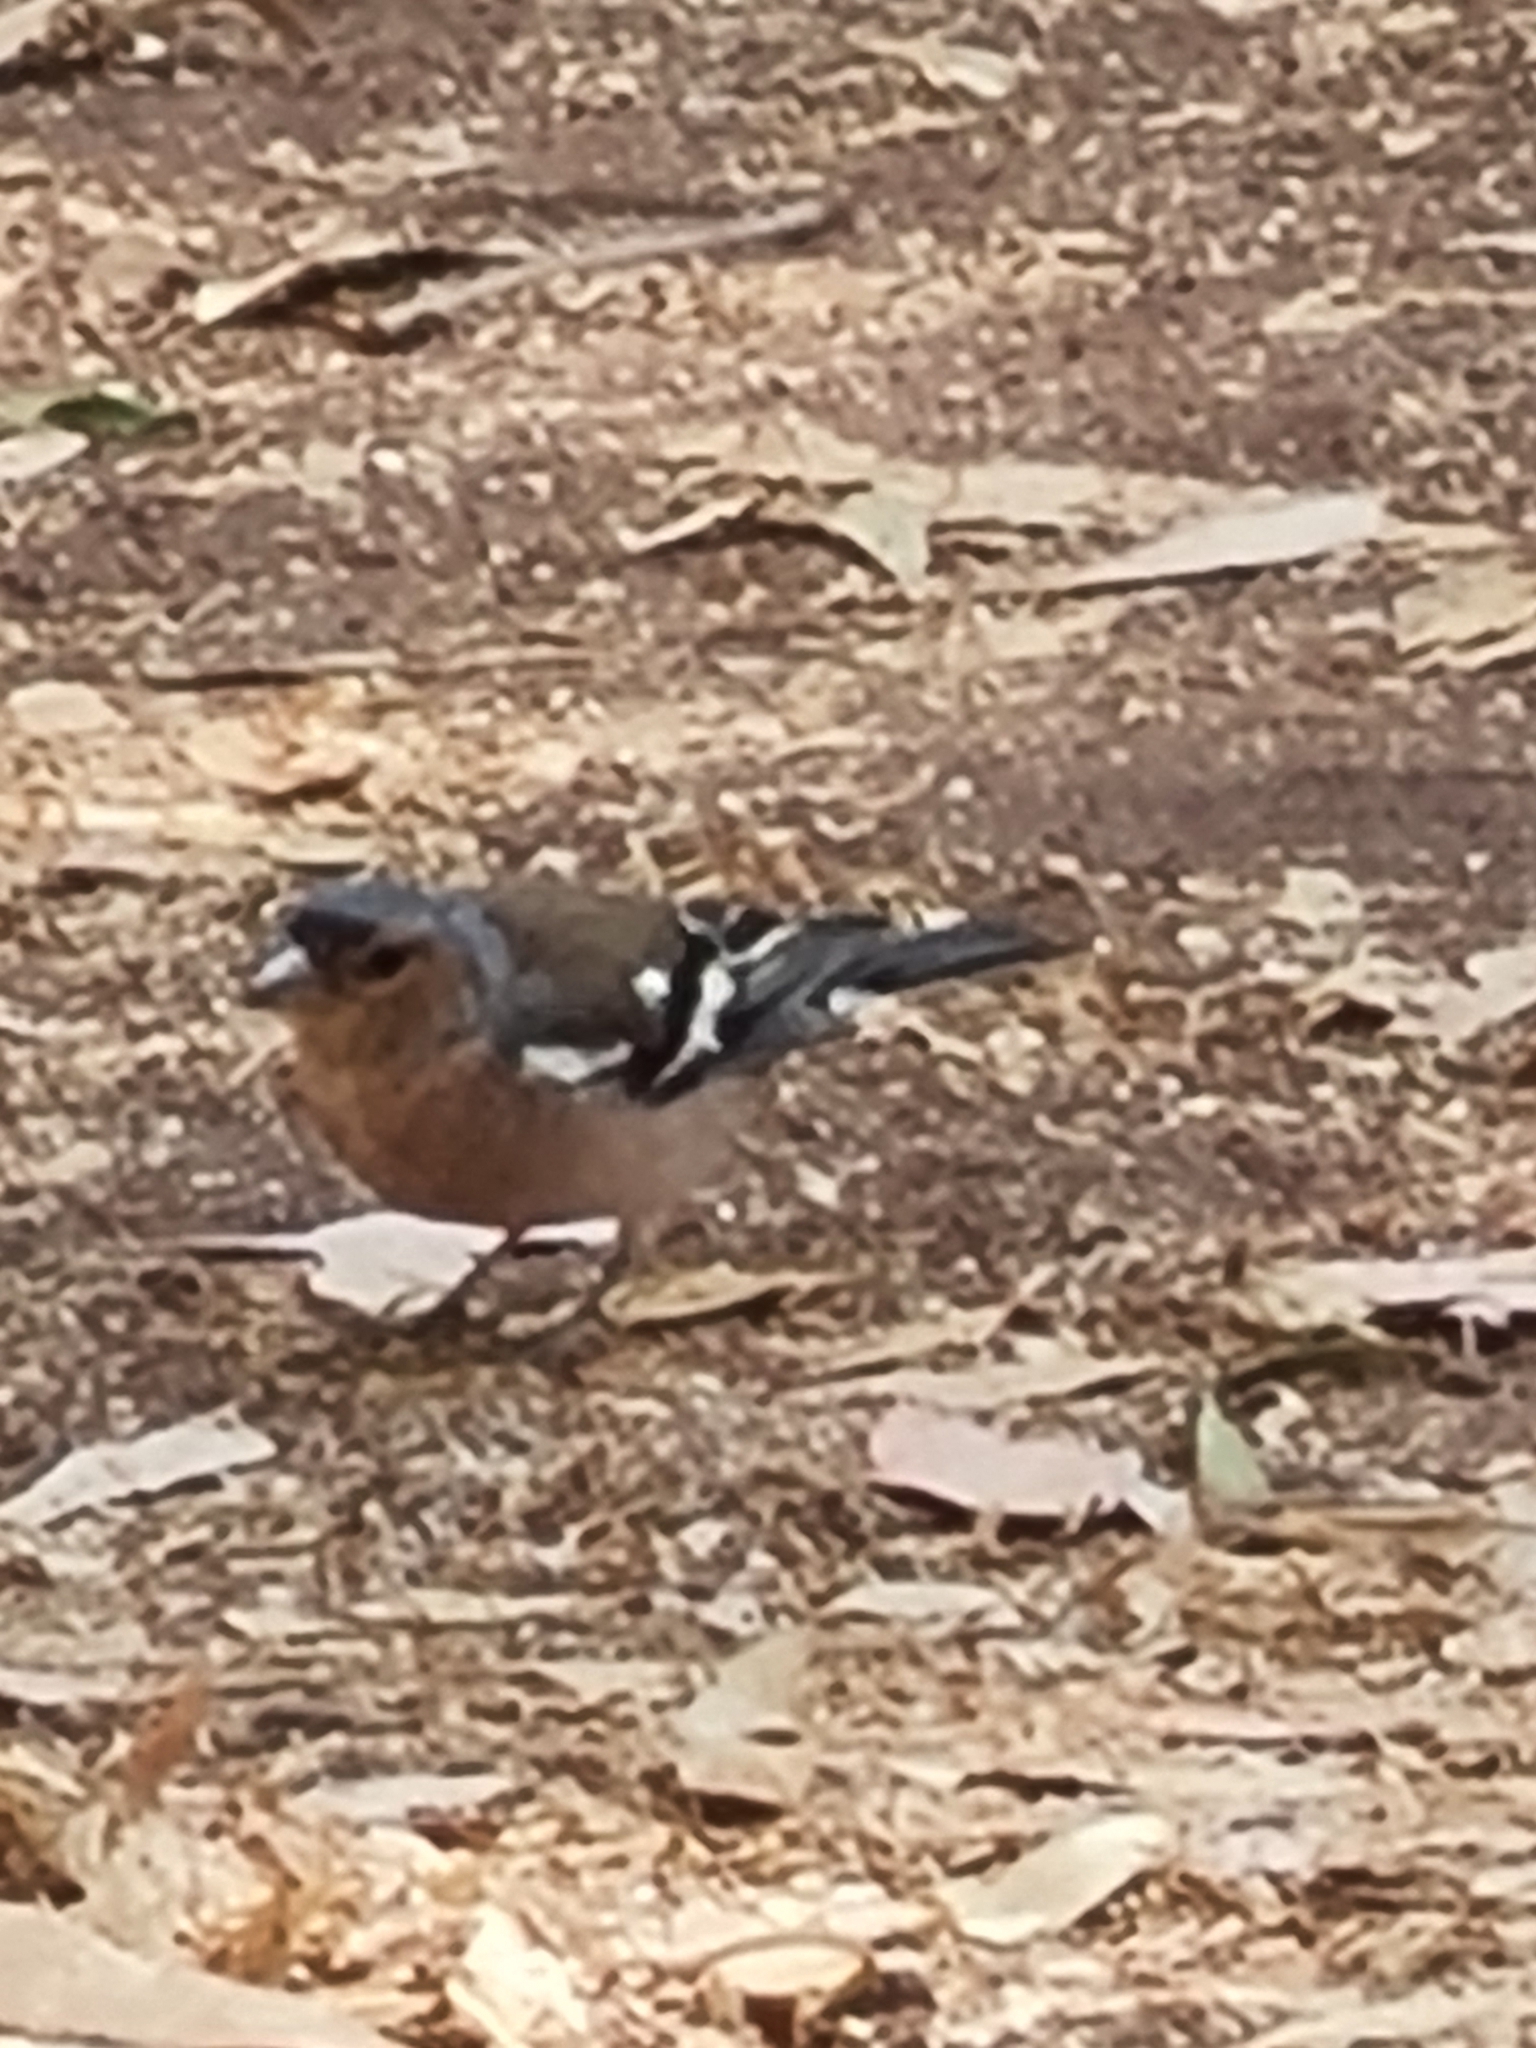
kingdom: Animalia
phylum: Chordata
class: Aves
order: Passeriformes
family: Fringillidae
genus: Fringilla
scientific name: Fringilla coelebs
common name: Common chaffinch
